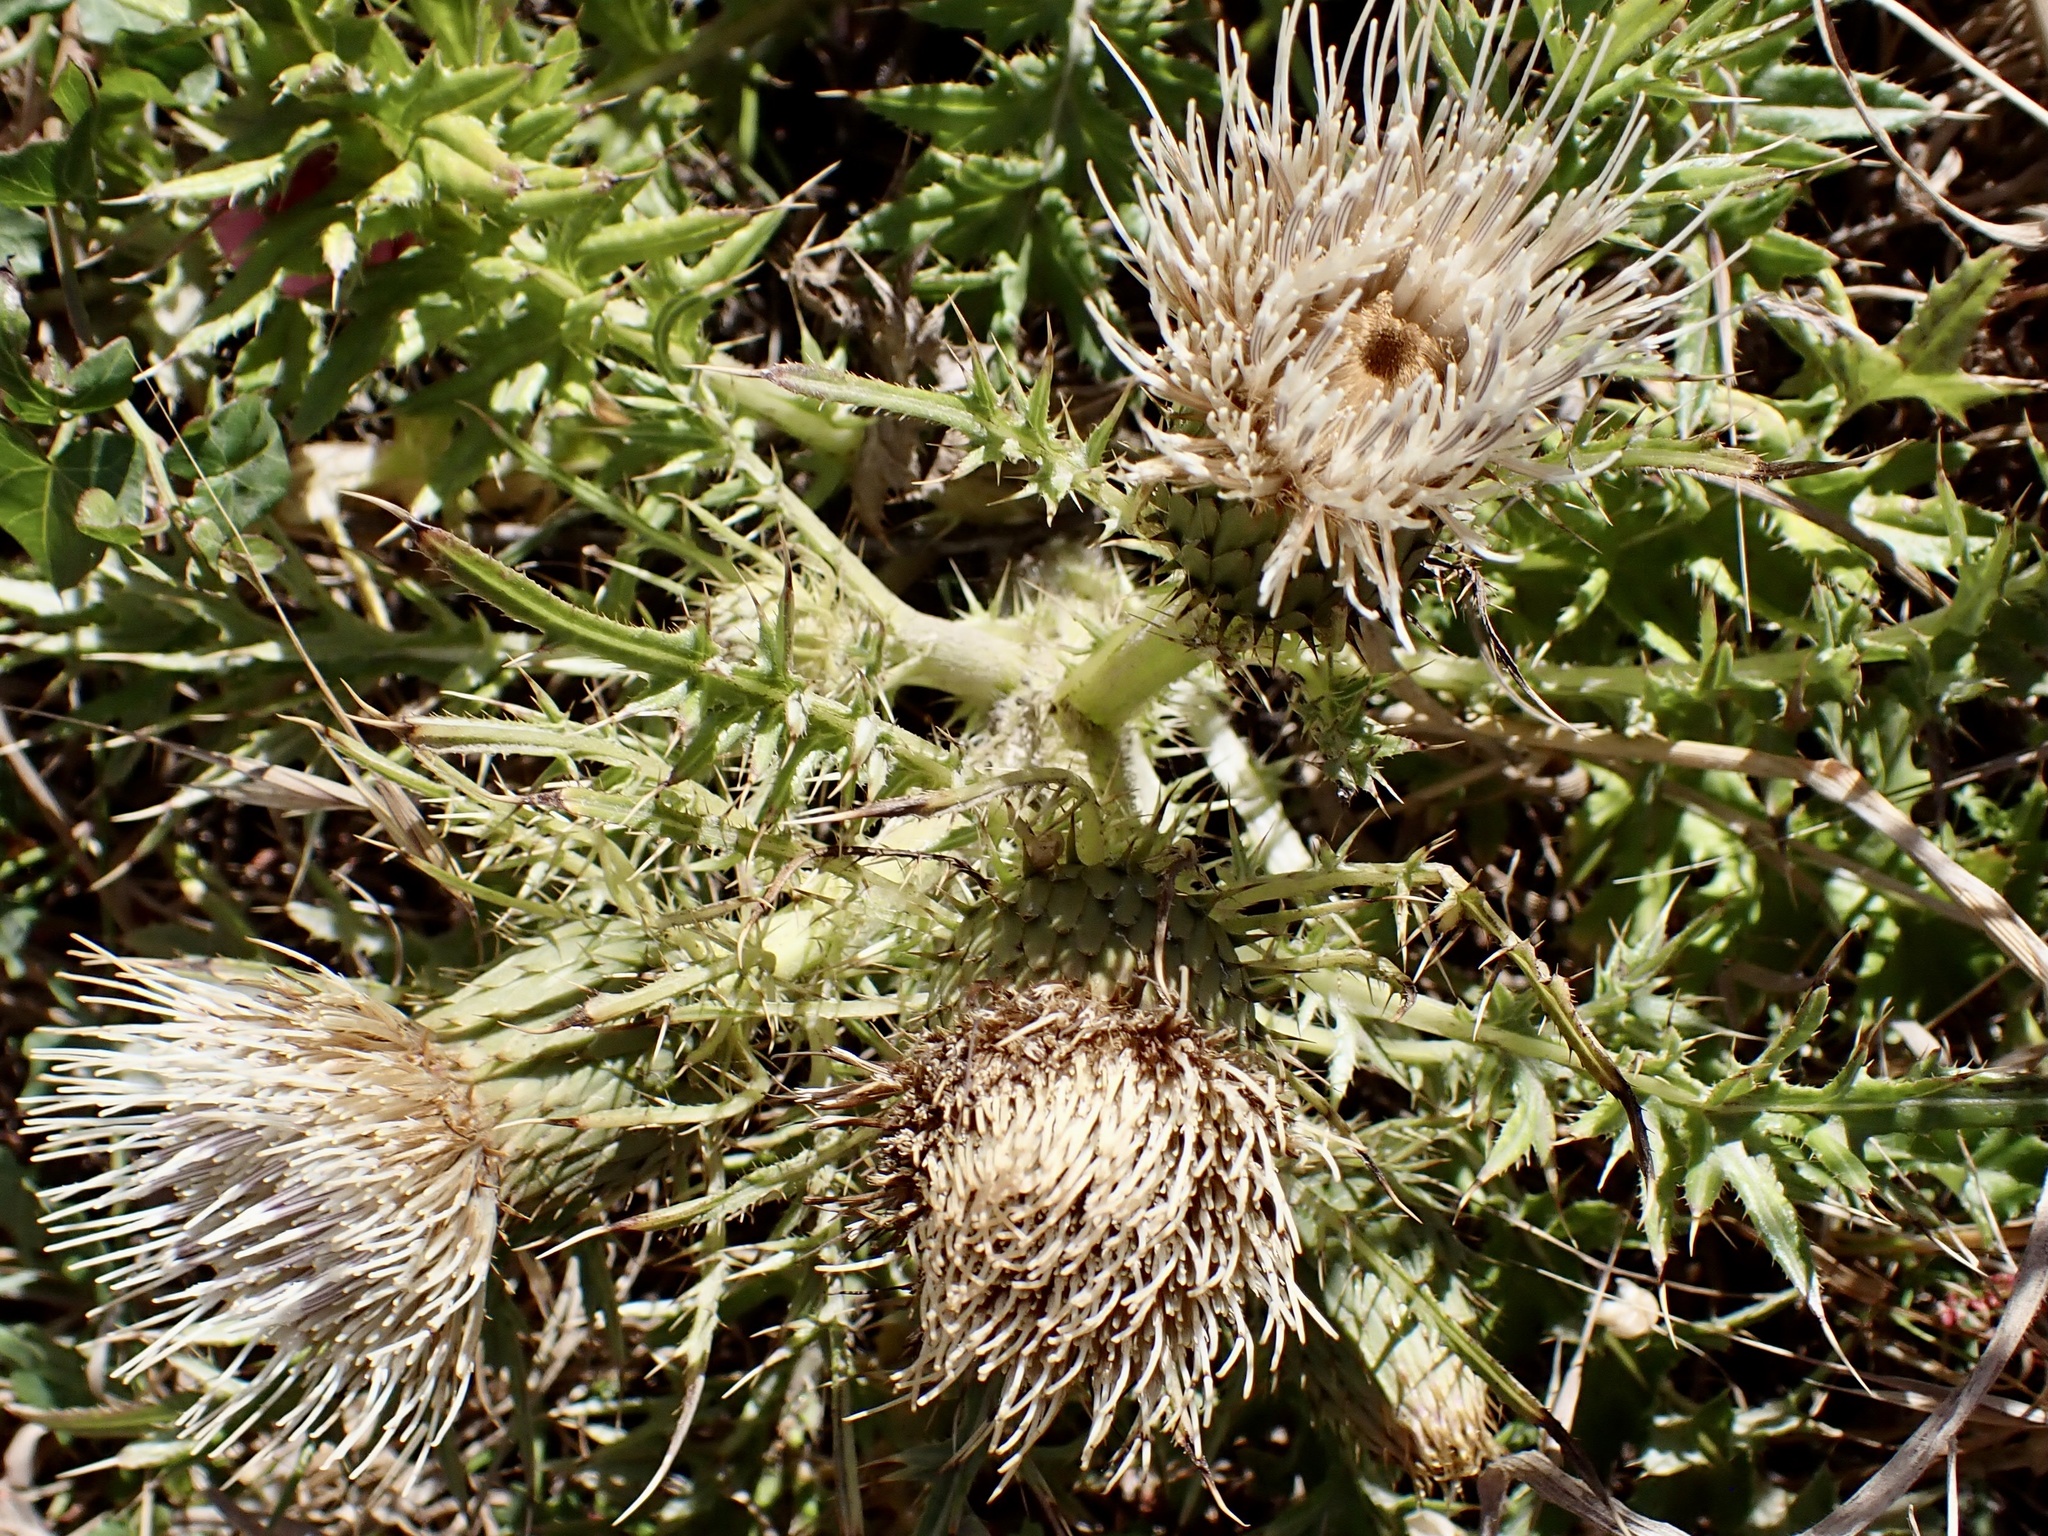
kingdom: Plantae
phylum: Tracheophyta
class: Magnoliopsida
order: Asterales
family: Asteraceae
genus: Cirsium
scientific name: Cirsium quercetorum
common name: Alameda county thistle
